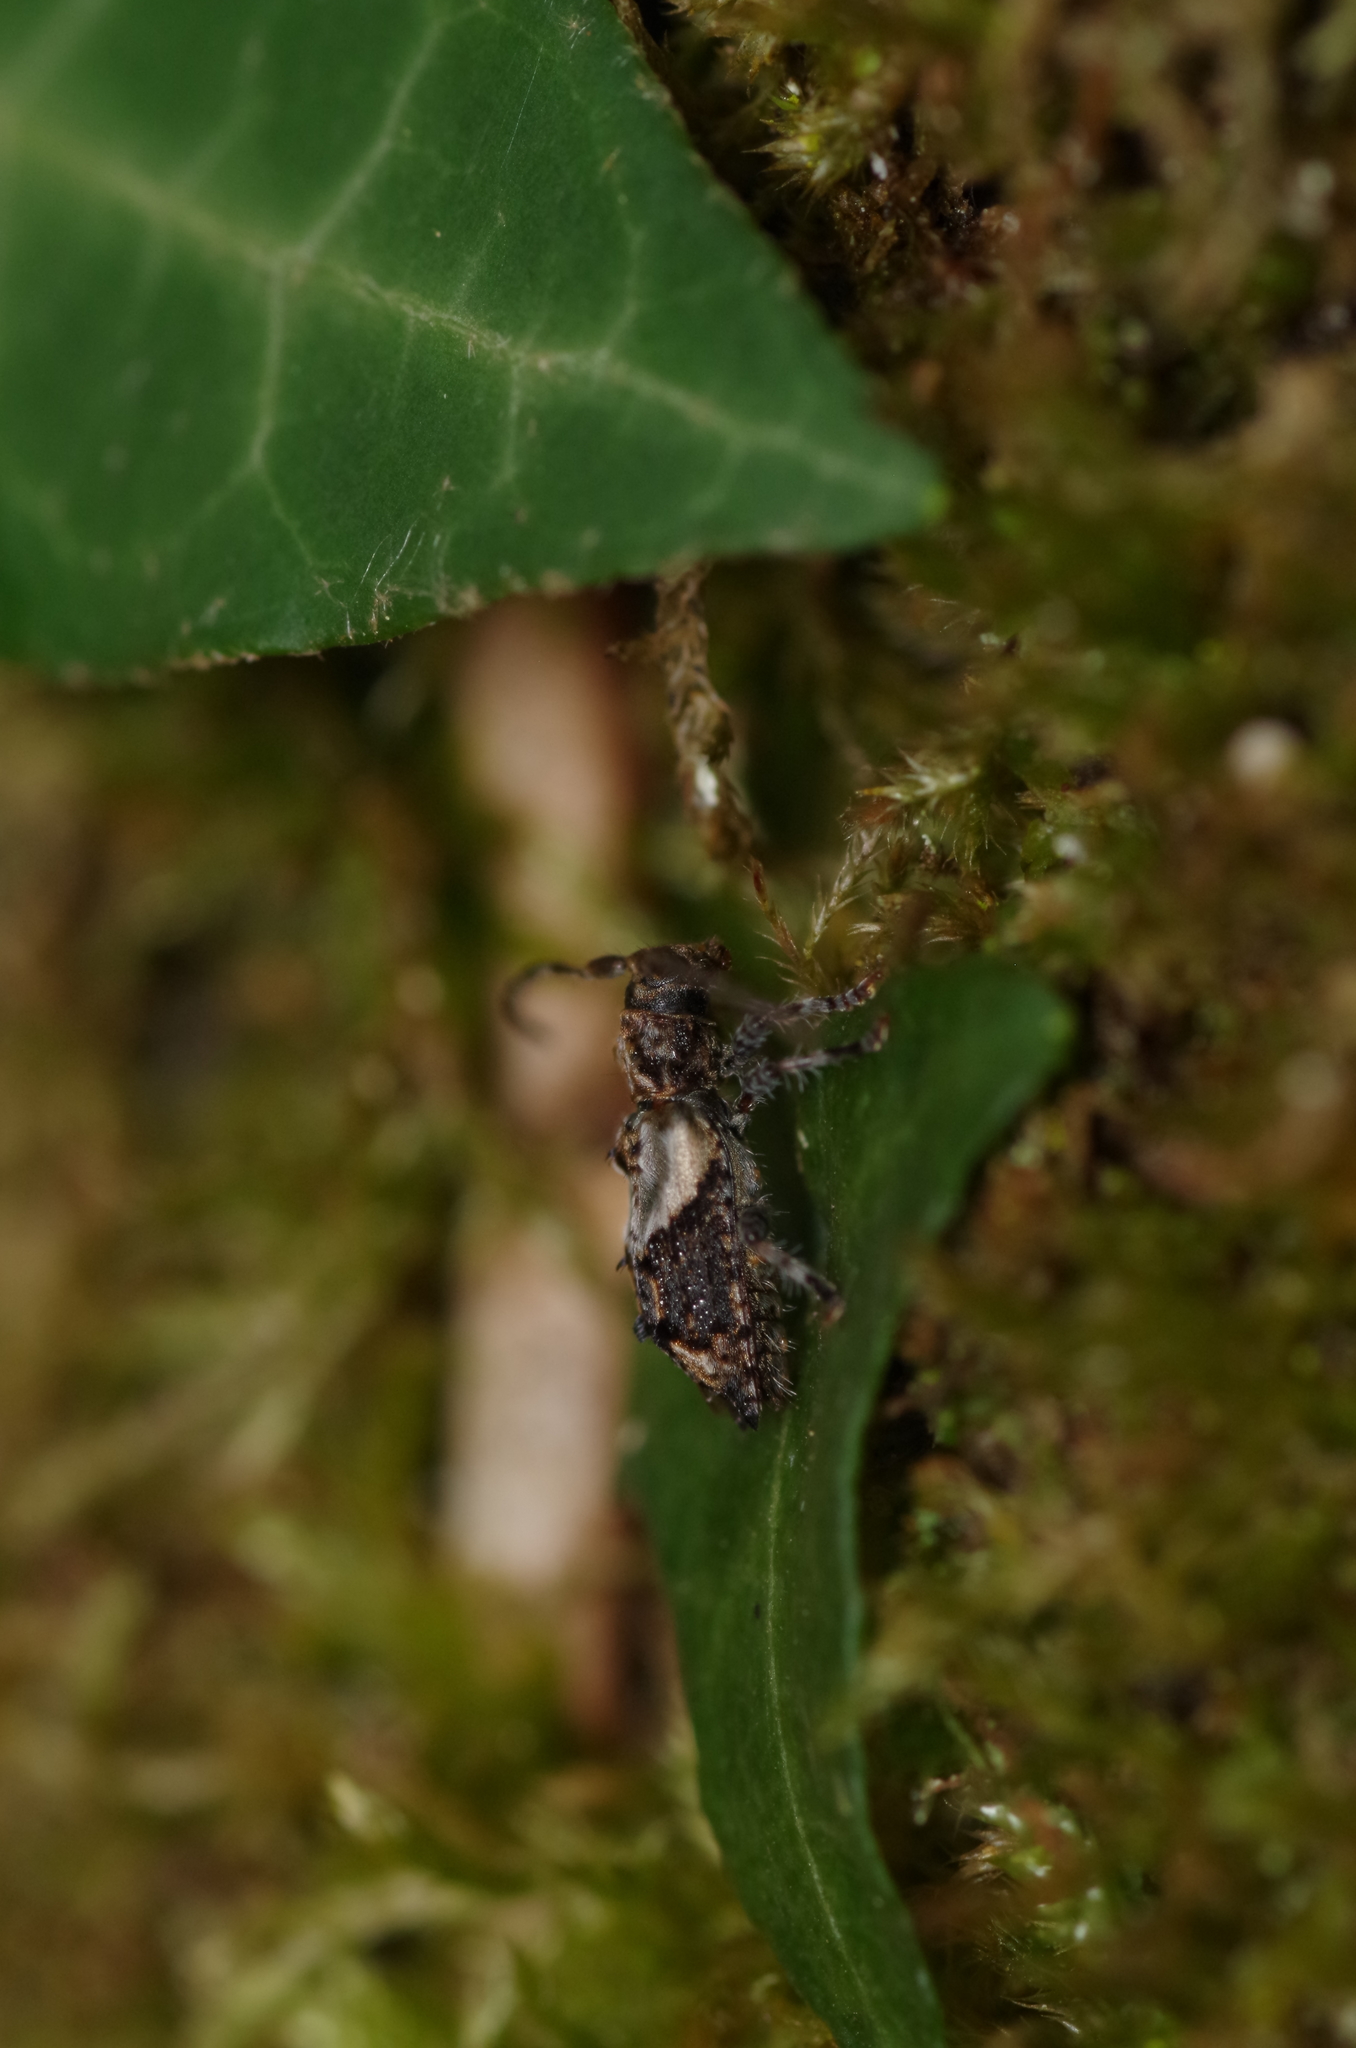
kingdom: Animalia
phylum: Arthropoda
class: Insecta
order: Coleoptera
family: Cerambycidae
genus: Pogonocherus
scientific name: Pogonocherus hispidus
